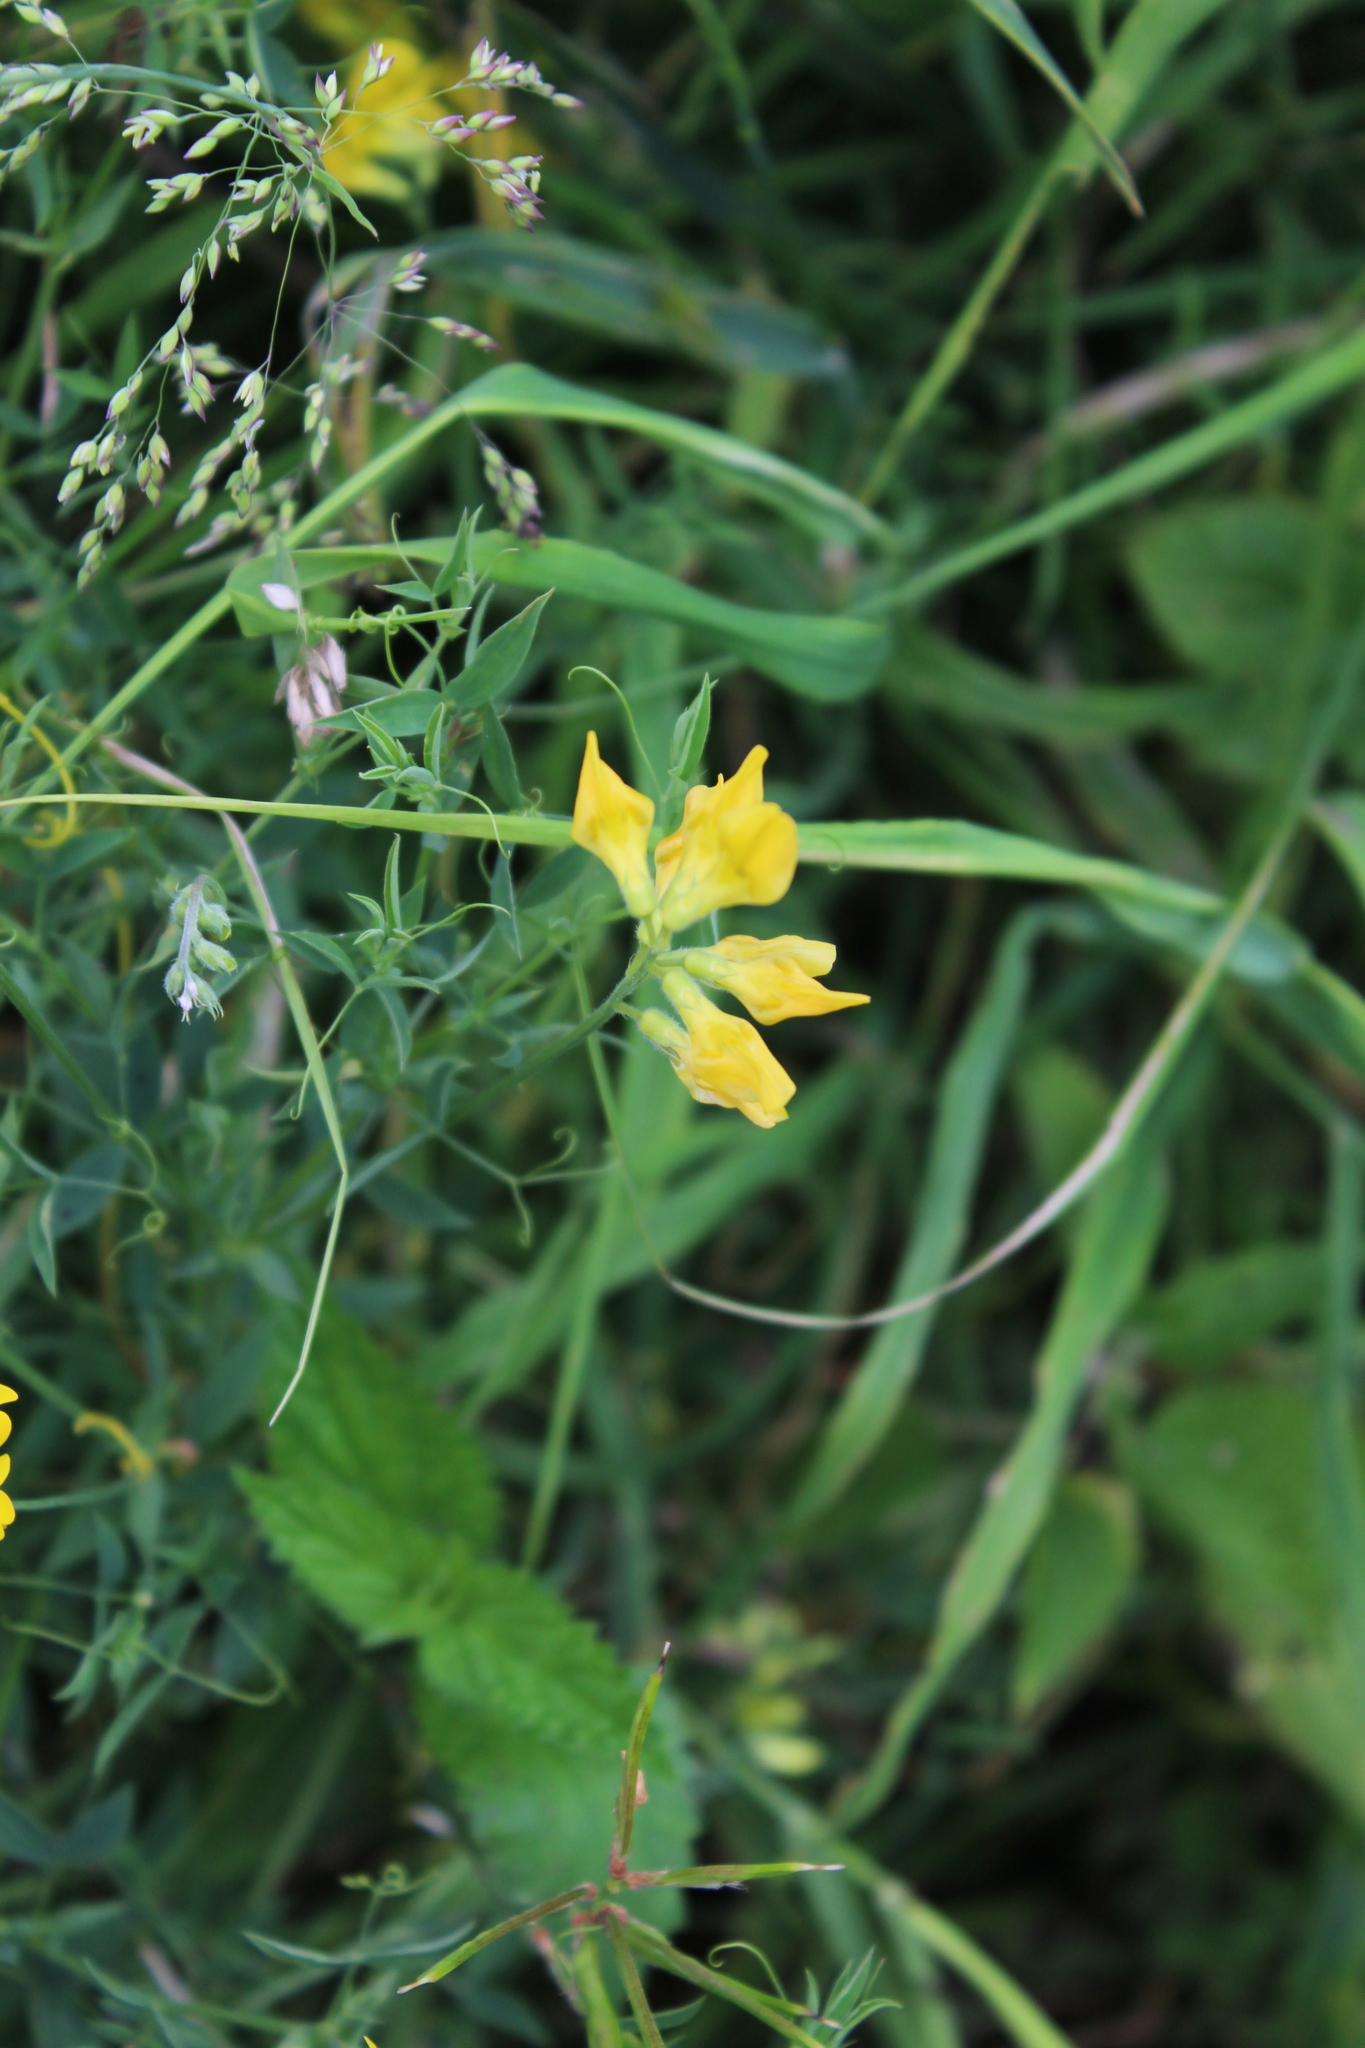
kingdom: Plantae
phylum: Tracheophyta
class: Magnoliopsida
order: Fabales
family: Fabaceae
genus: Lathyrus
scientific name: Lathyrus pratensis
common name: Meadow vetchling
